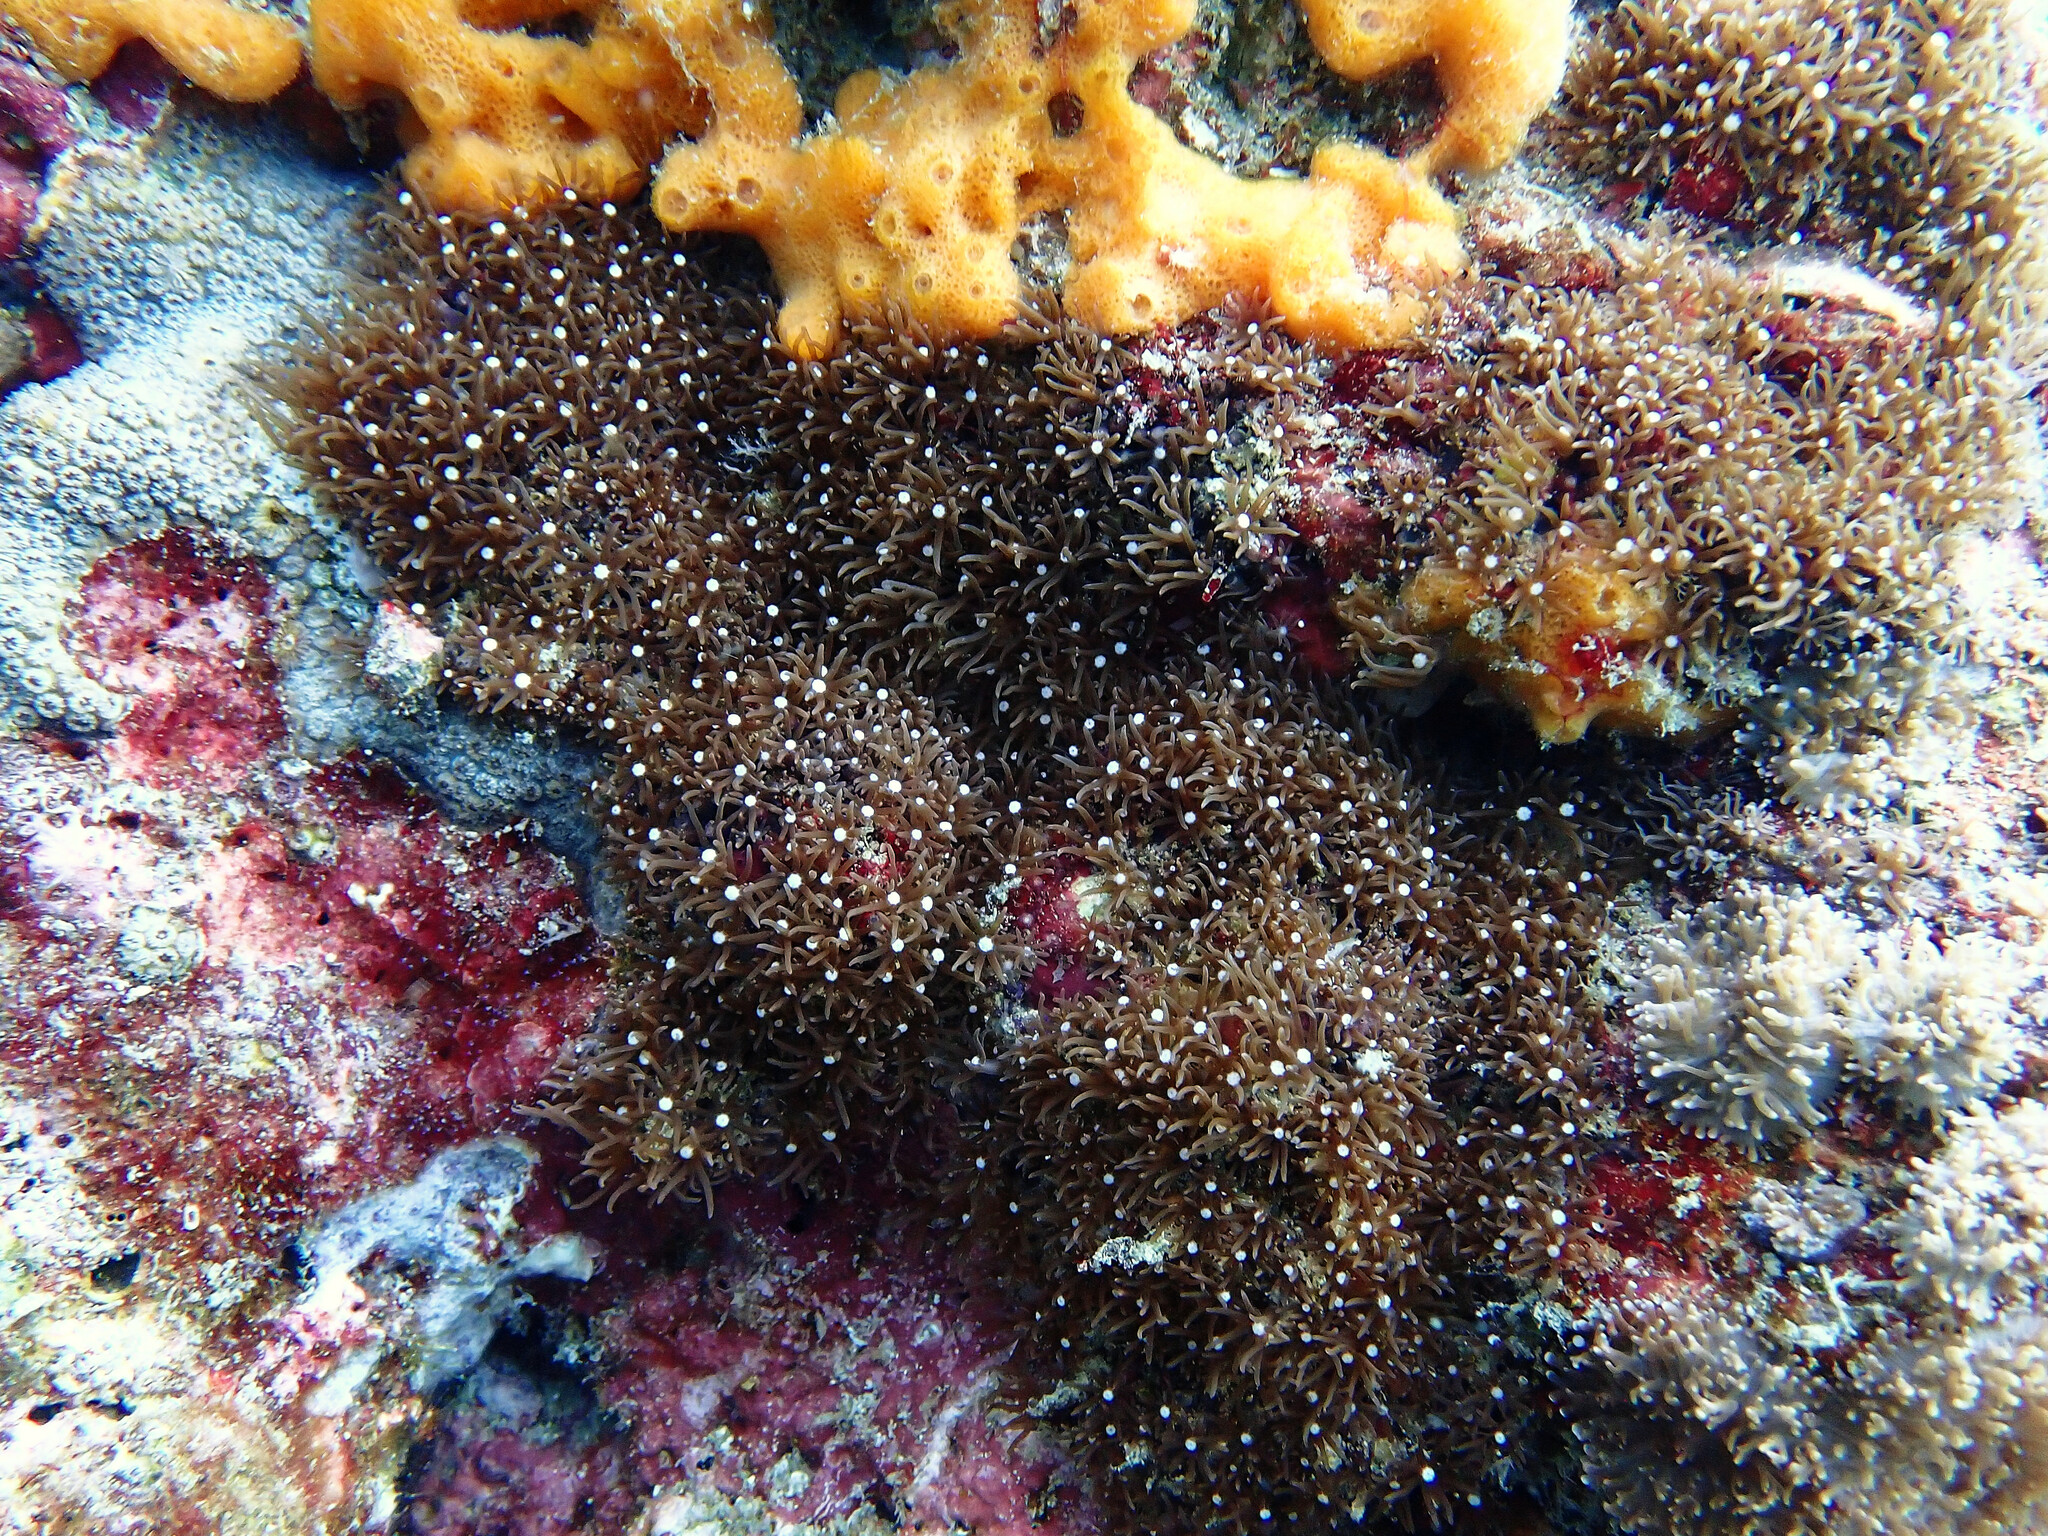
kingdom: Animalia
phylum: Cnidaria
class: Anthozoa
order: Scleralcyonacea
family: Briareidae
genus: Briareum
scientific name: Briareum violaceum
